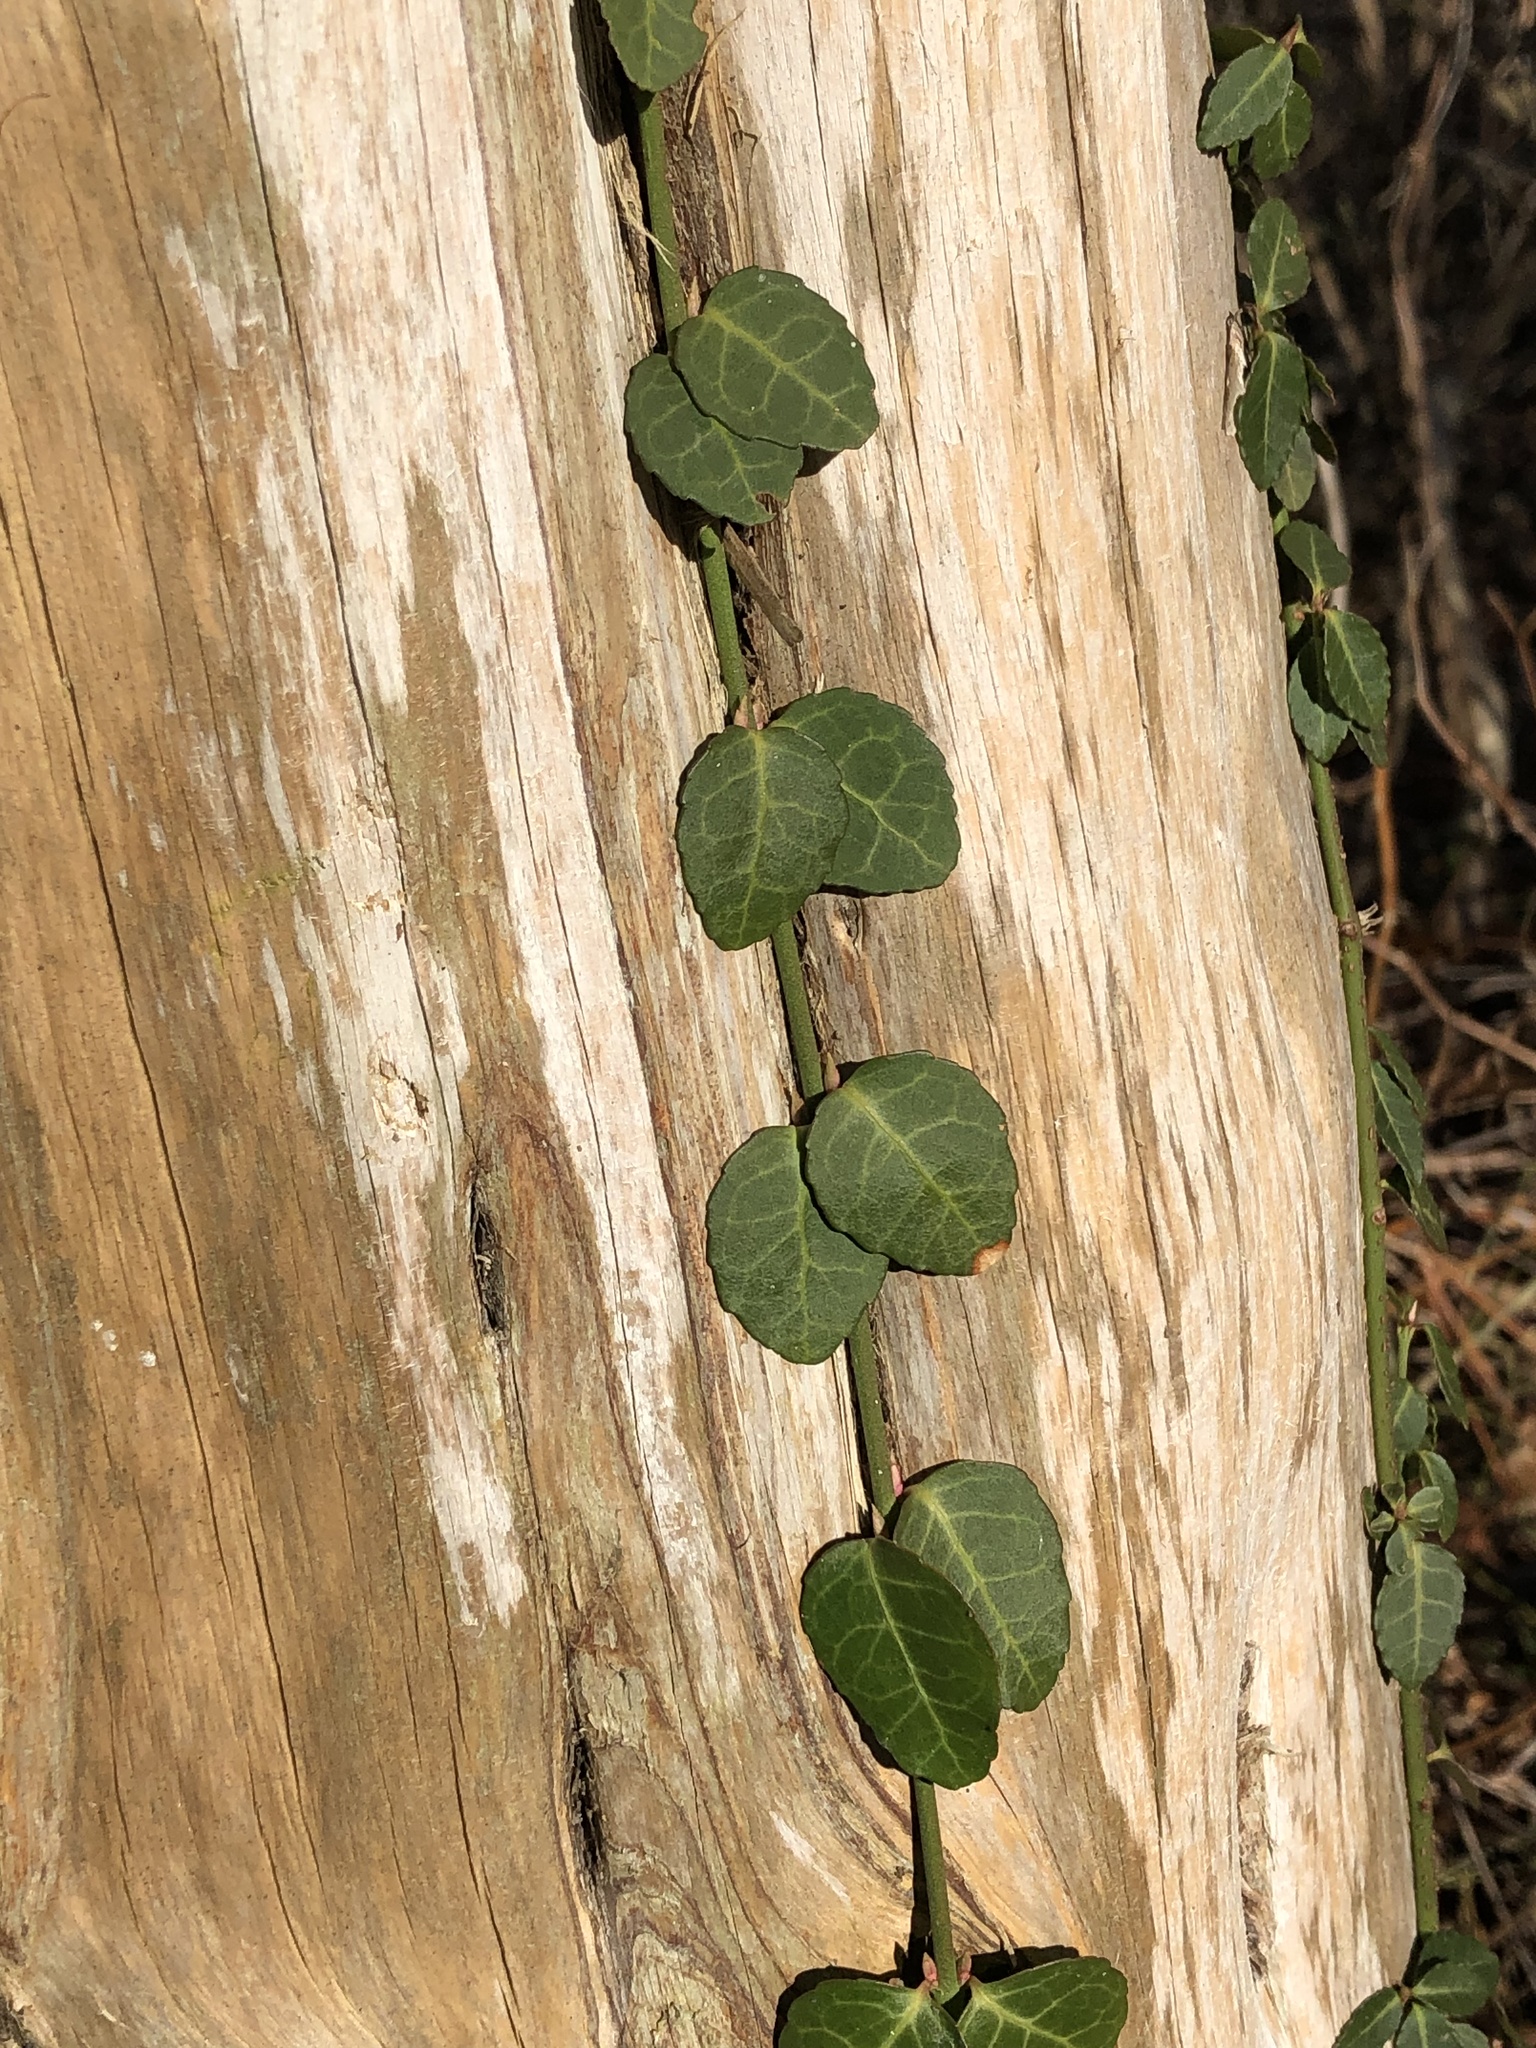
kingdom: Plantae
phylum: Tracheophyta
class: Magnoliopsida
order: Celastrales
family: Celastraceae
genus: Euonymus
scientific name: Euonymus fortunei
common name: Climbing euonymus
